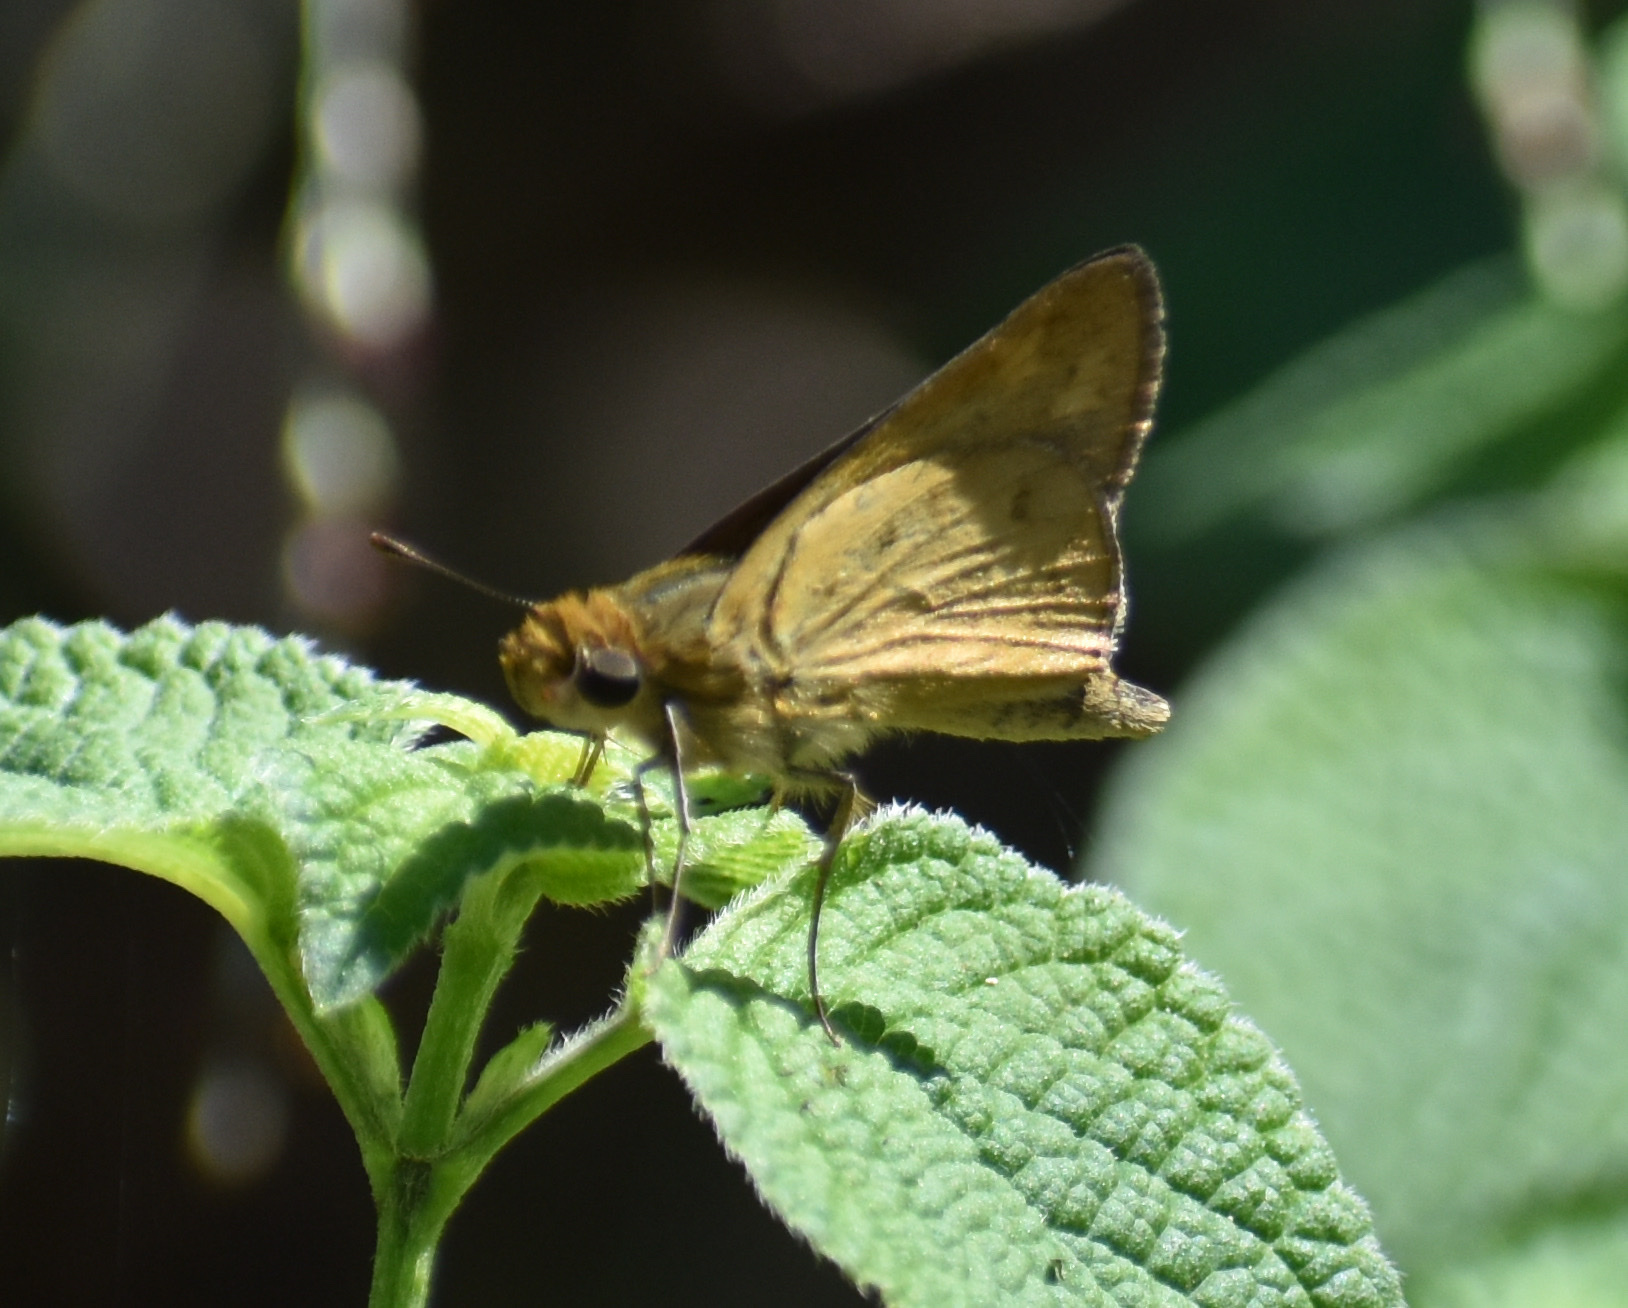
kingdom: Animalia
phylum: Arthropoda
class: Insecta
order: Hymenoptera
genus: Afrogenes
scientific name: Afrogenes
